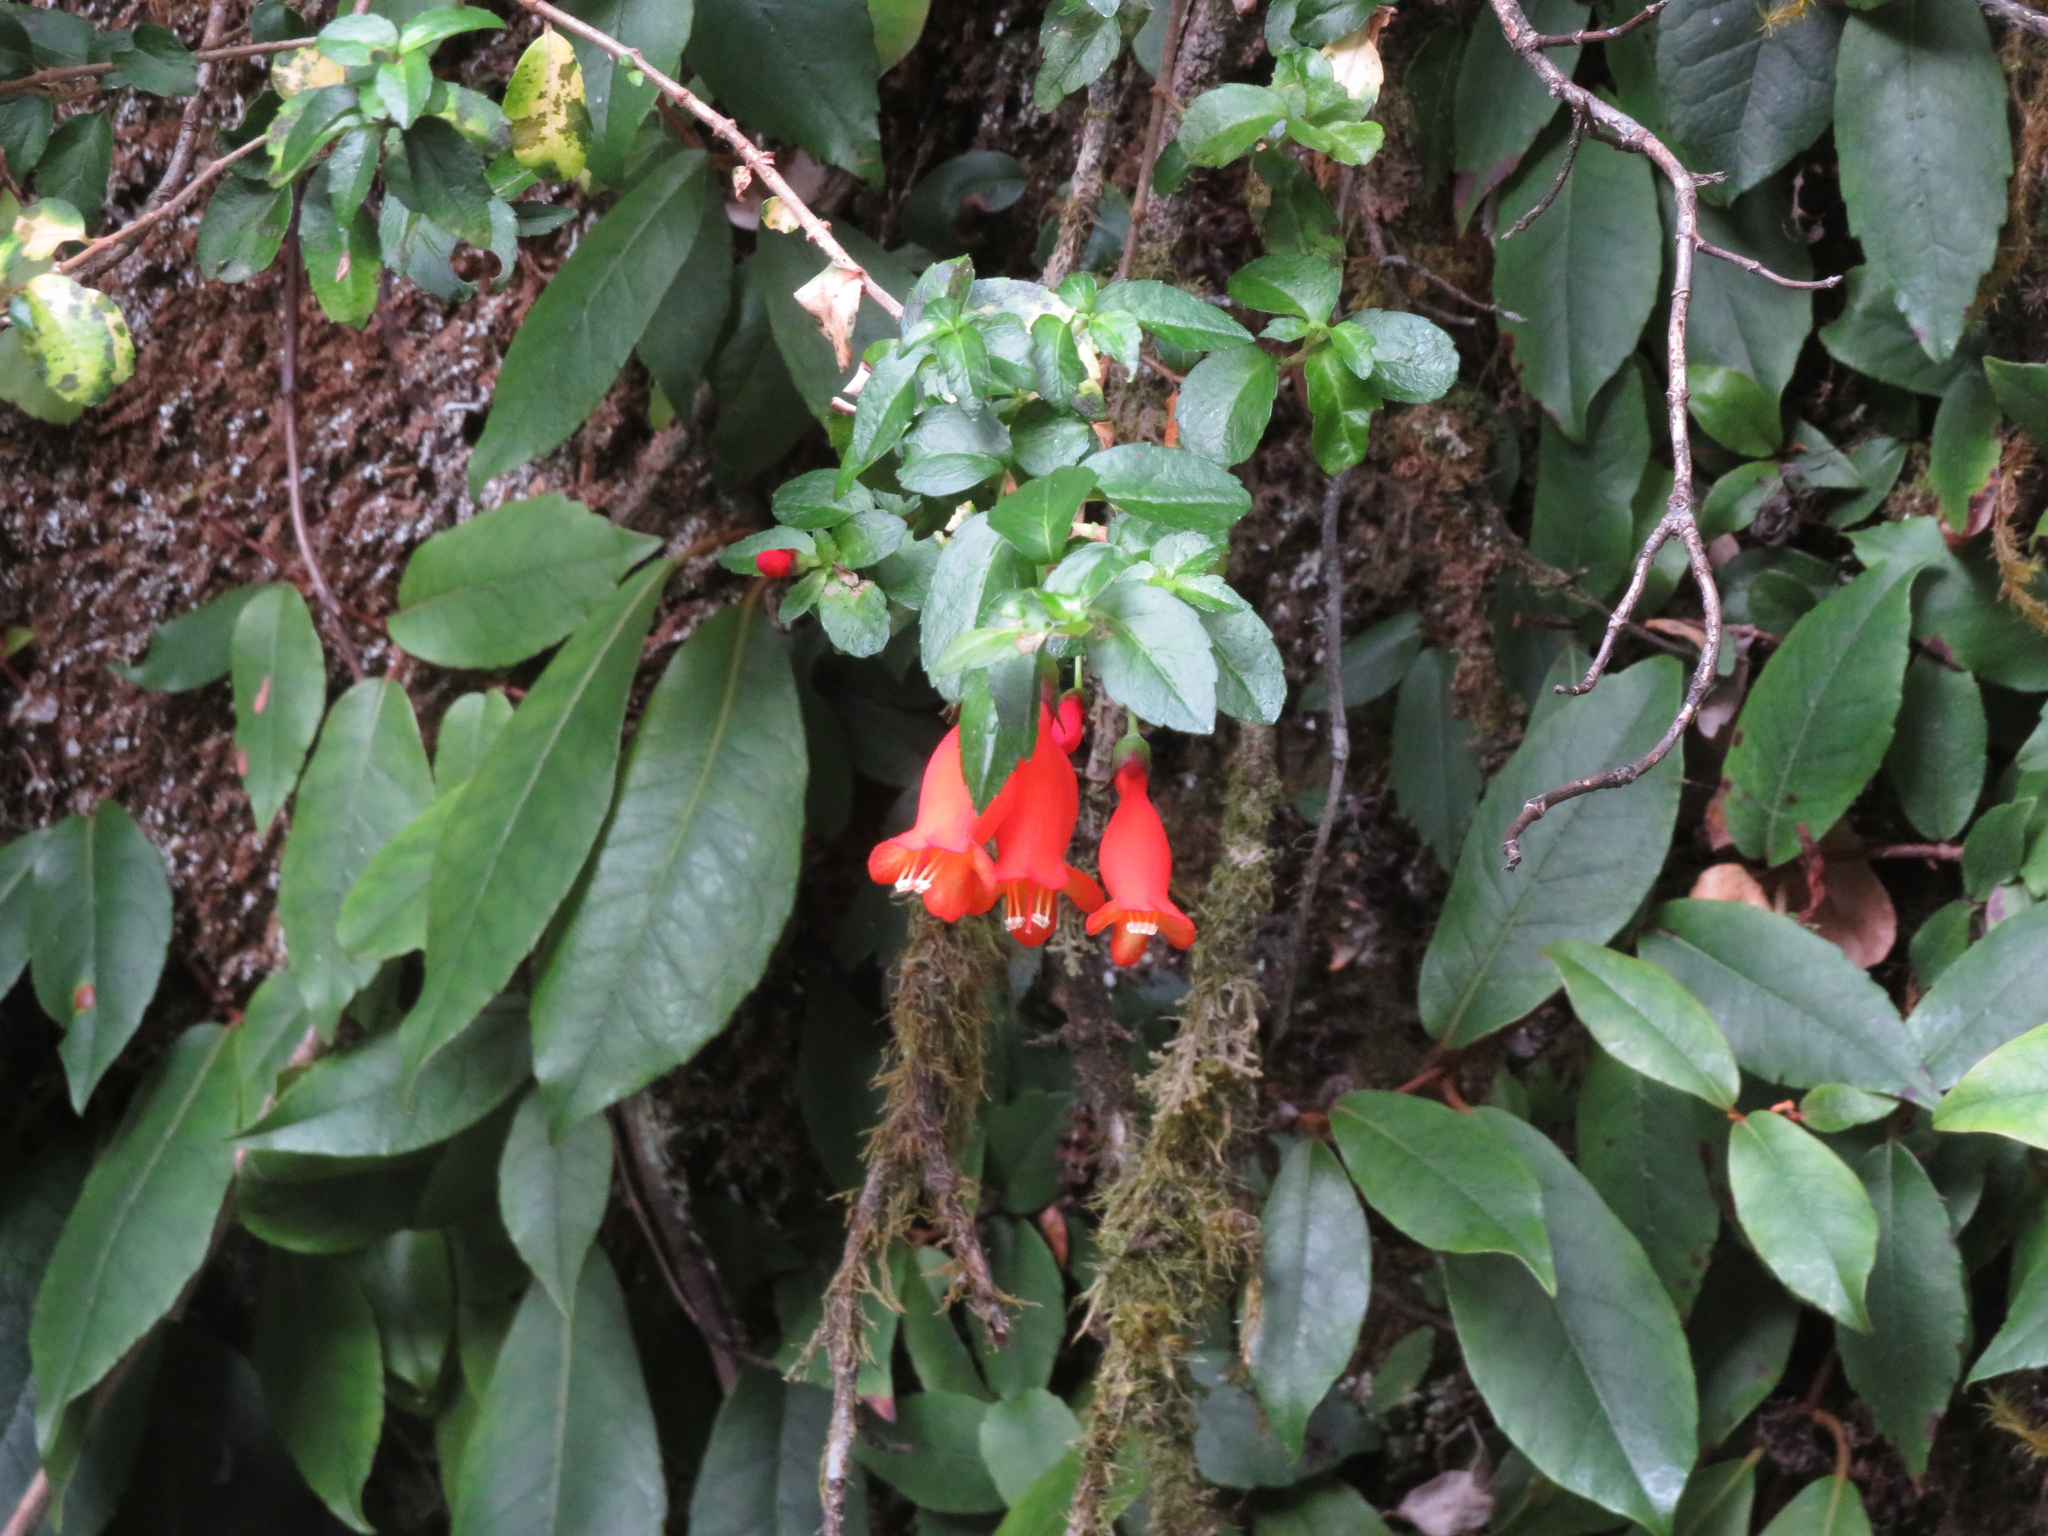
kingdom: Plantae
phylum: Tracheophyta
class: Magnoliopsida
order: Lamiales
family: Gesneriaceae
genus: Mitraria
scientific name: Mitraria coccinea
